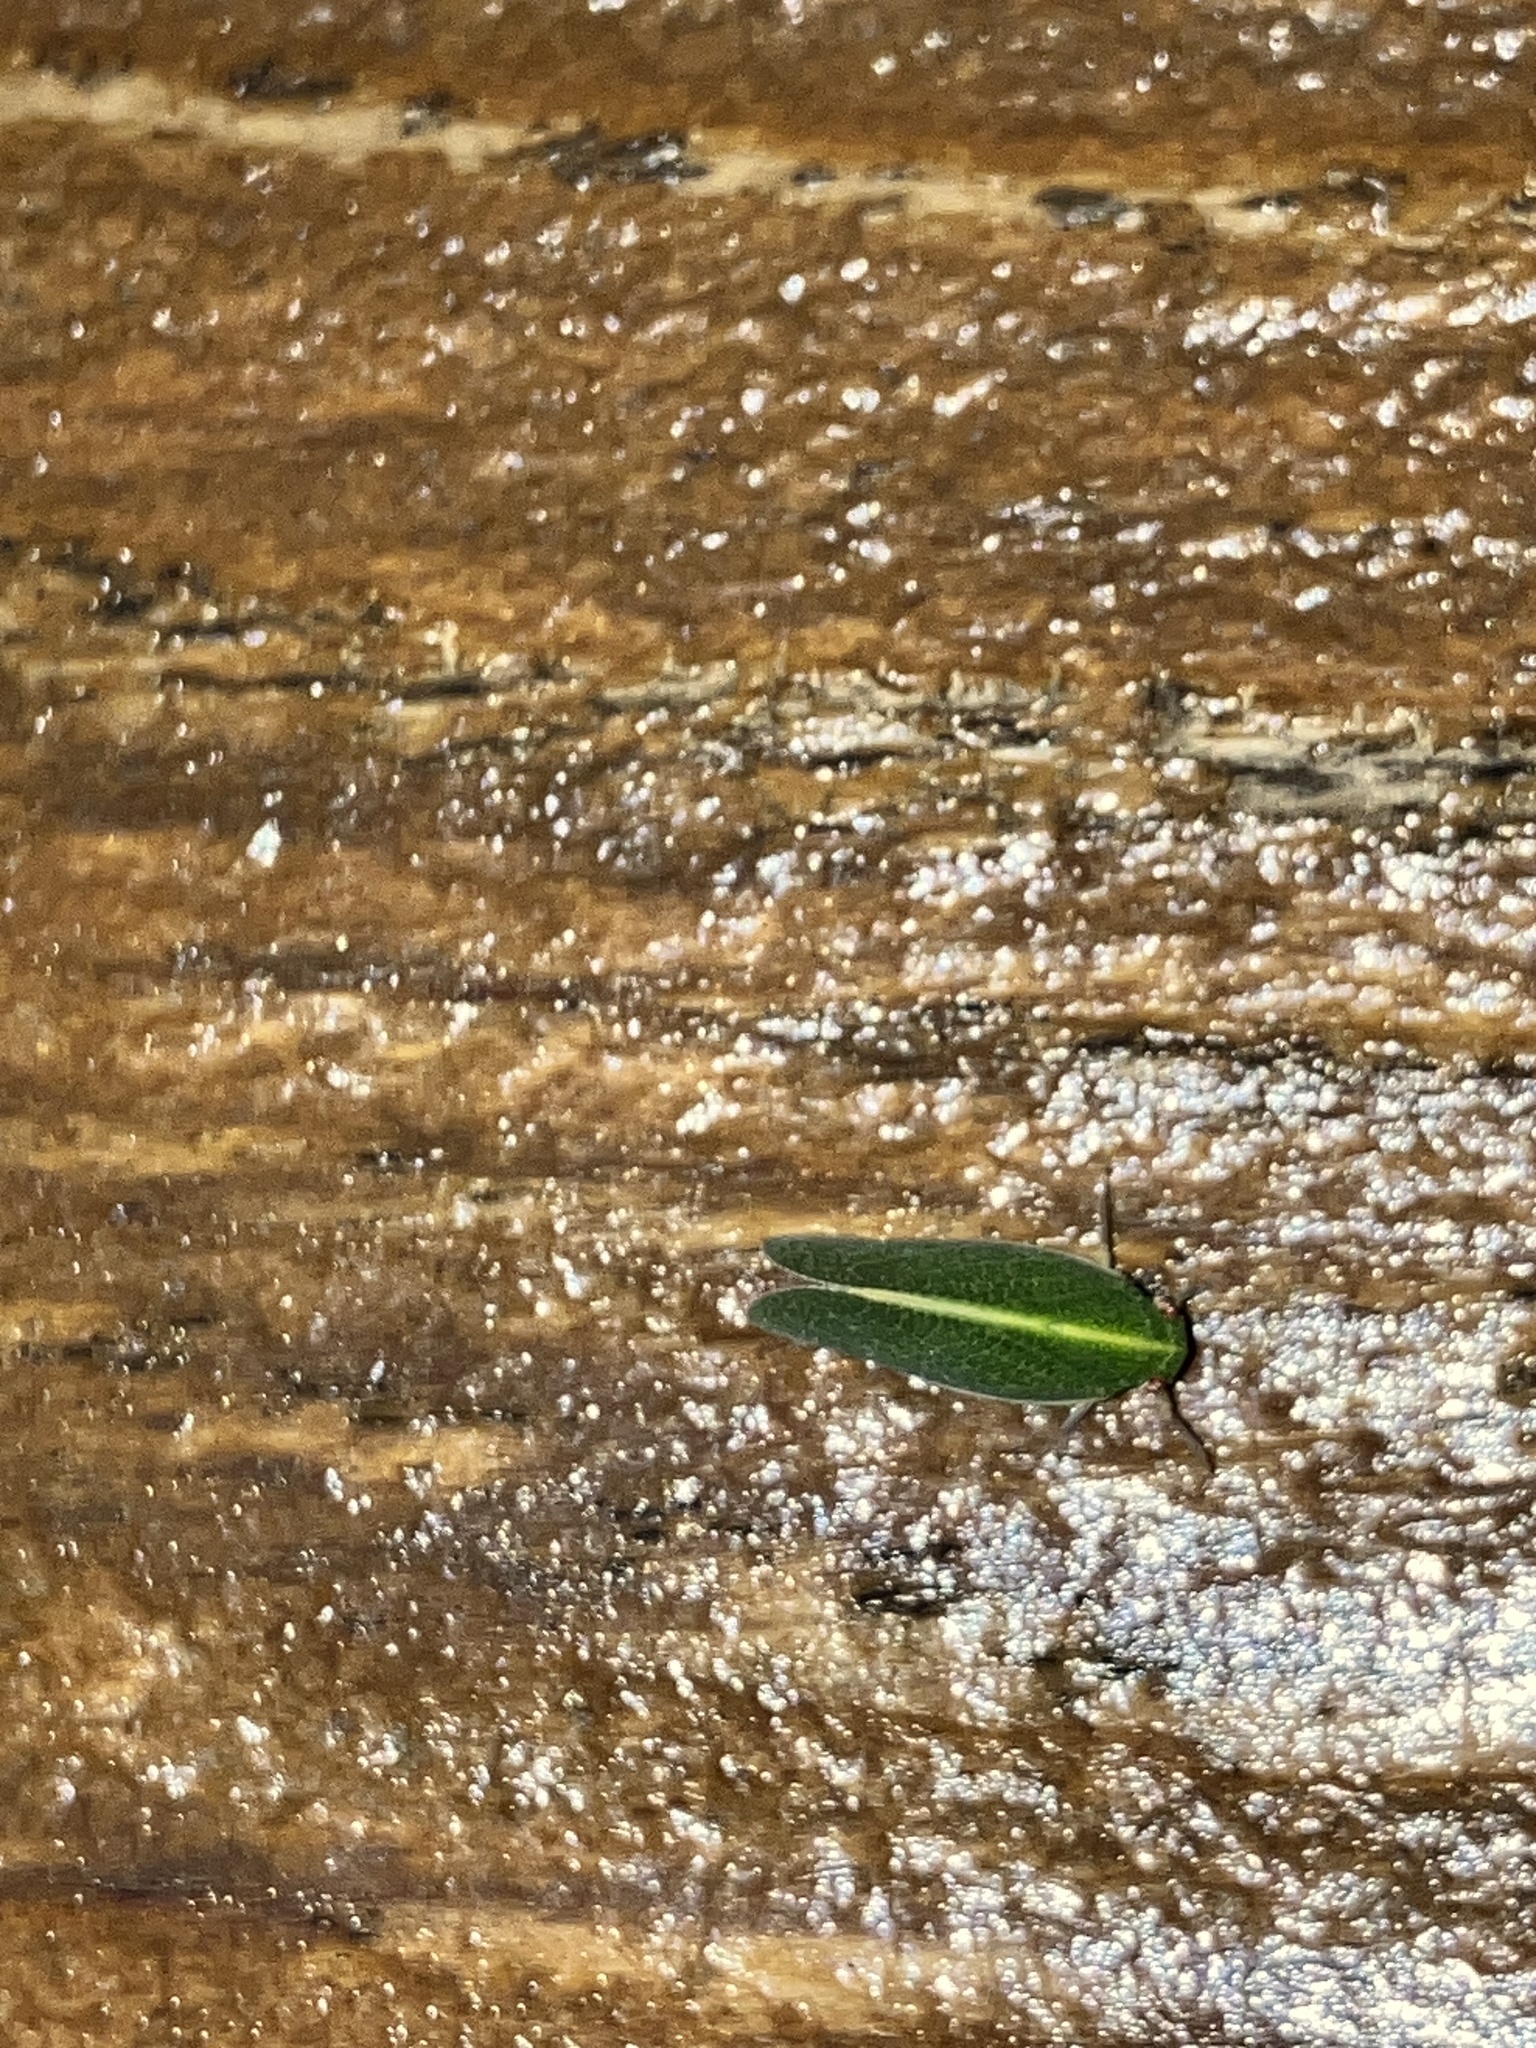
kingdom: Animalia
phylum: Arthropoda
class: Insecta
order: Hemiptera
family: Acanaloniidae
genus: Acanalonia
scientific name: Acanalonia servillei
